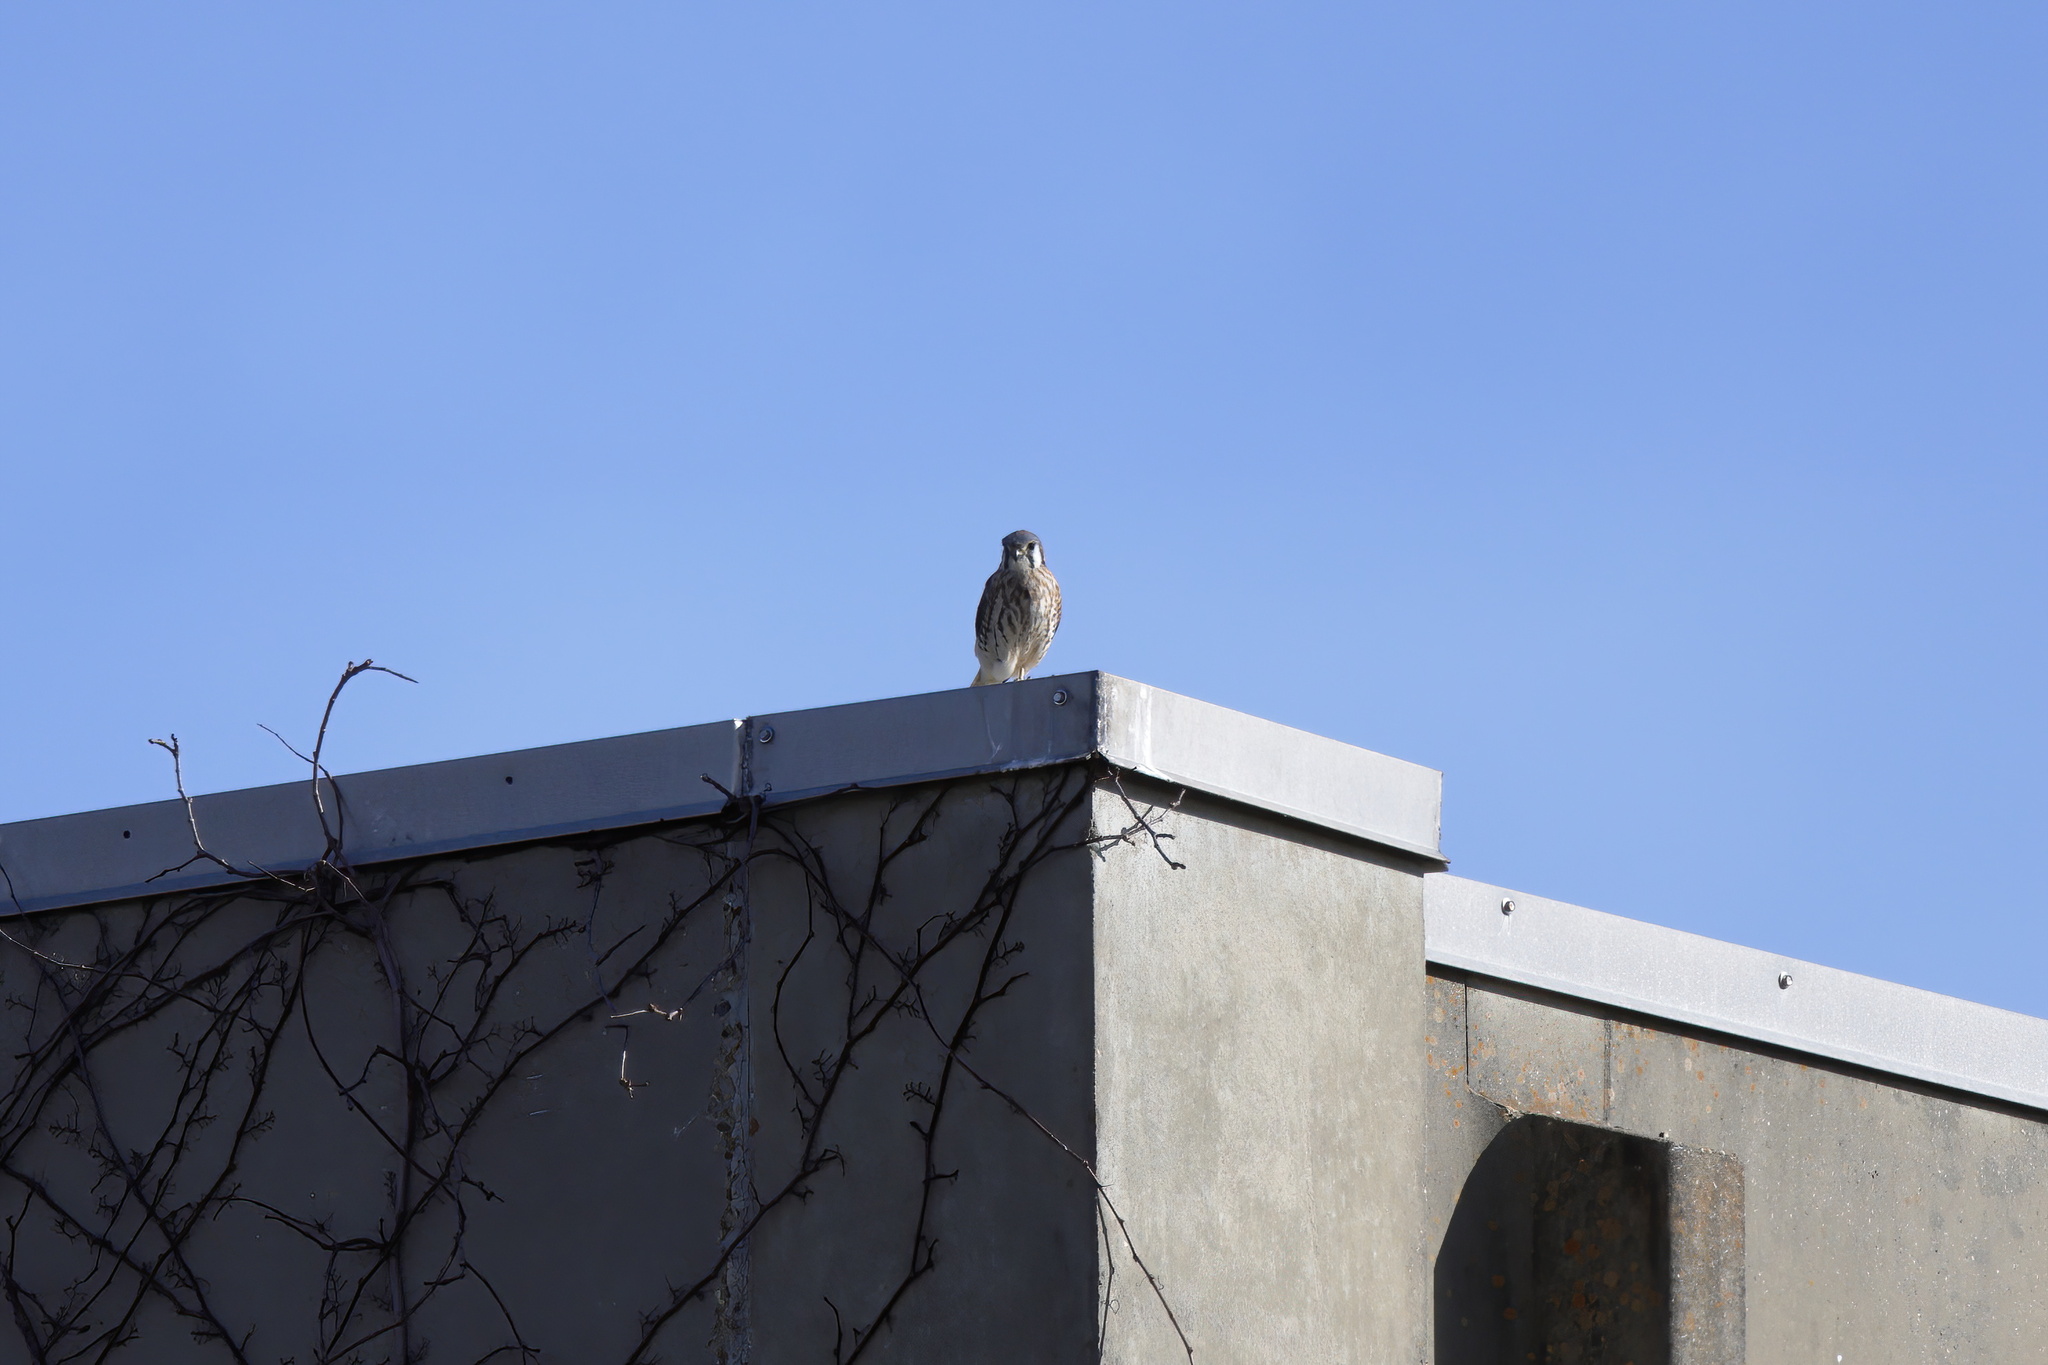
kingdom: Animalia
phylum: Chordata
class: Aves
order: Falconiformes
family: Falconidae
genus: Falco
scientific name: Falco sparverius
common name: American kestrel
